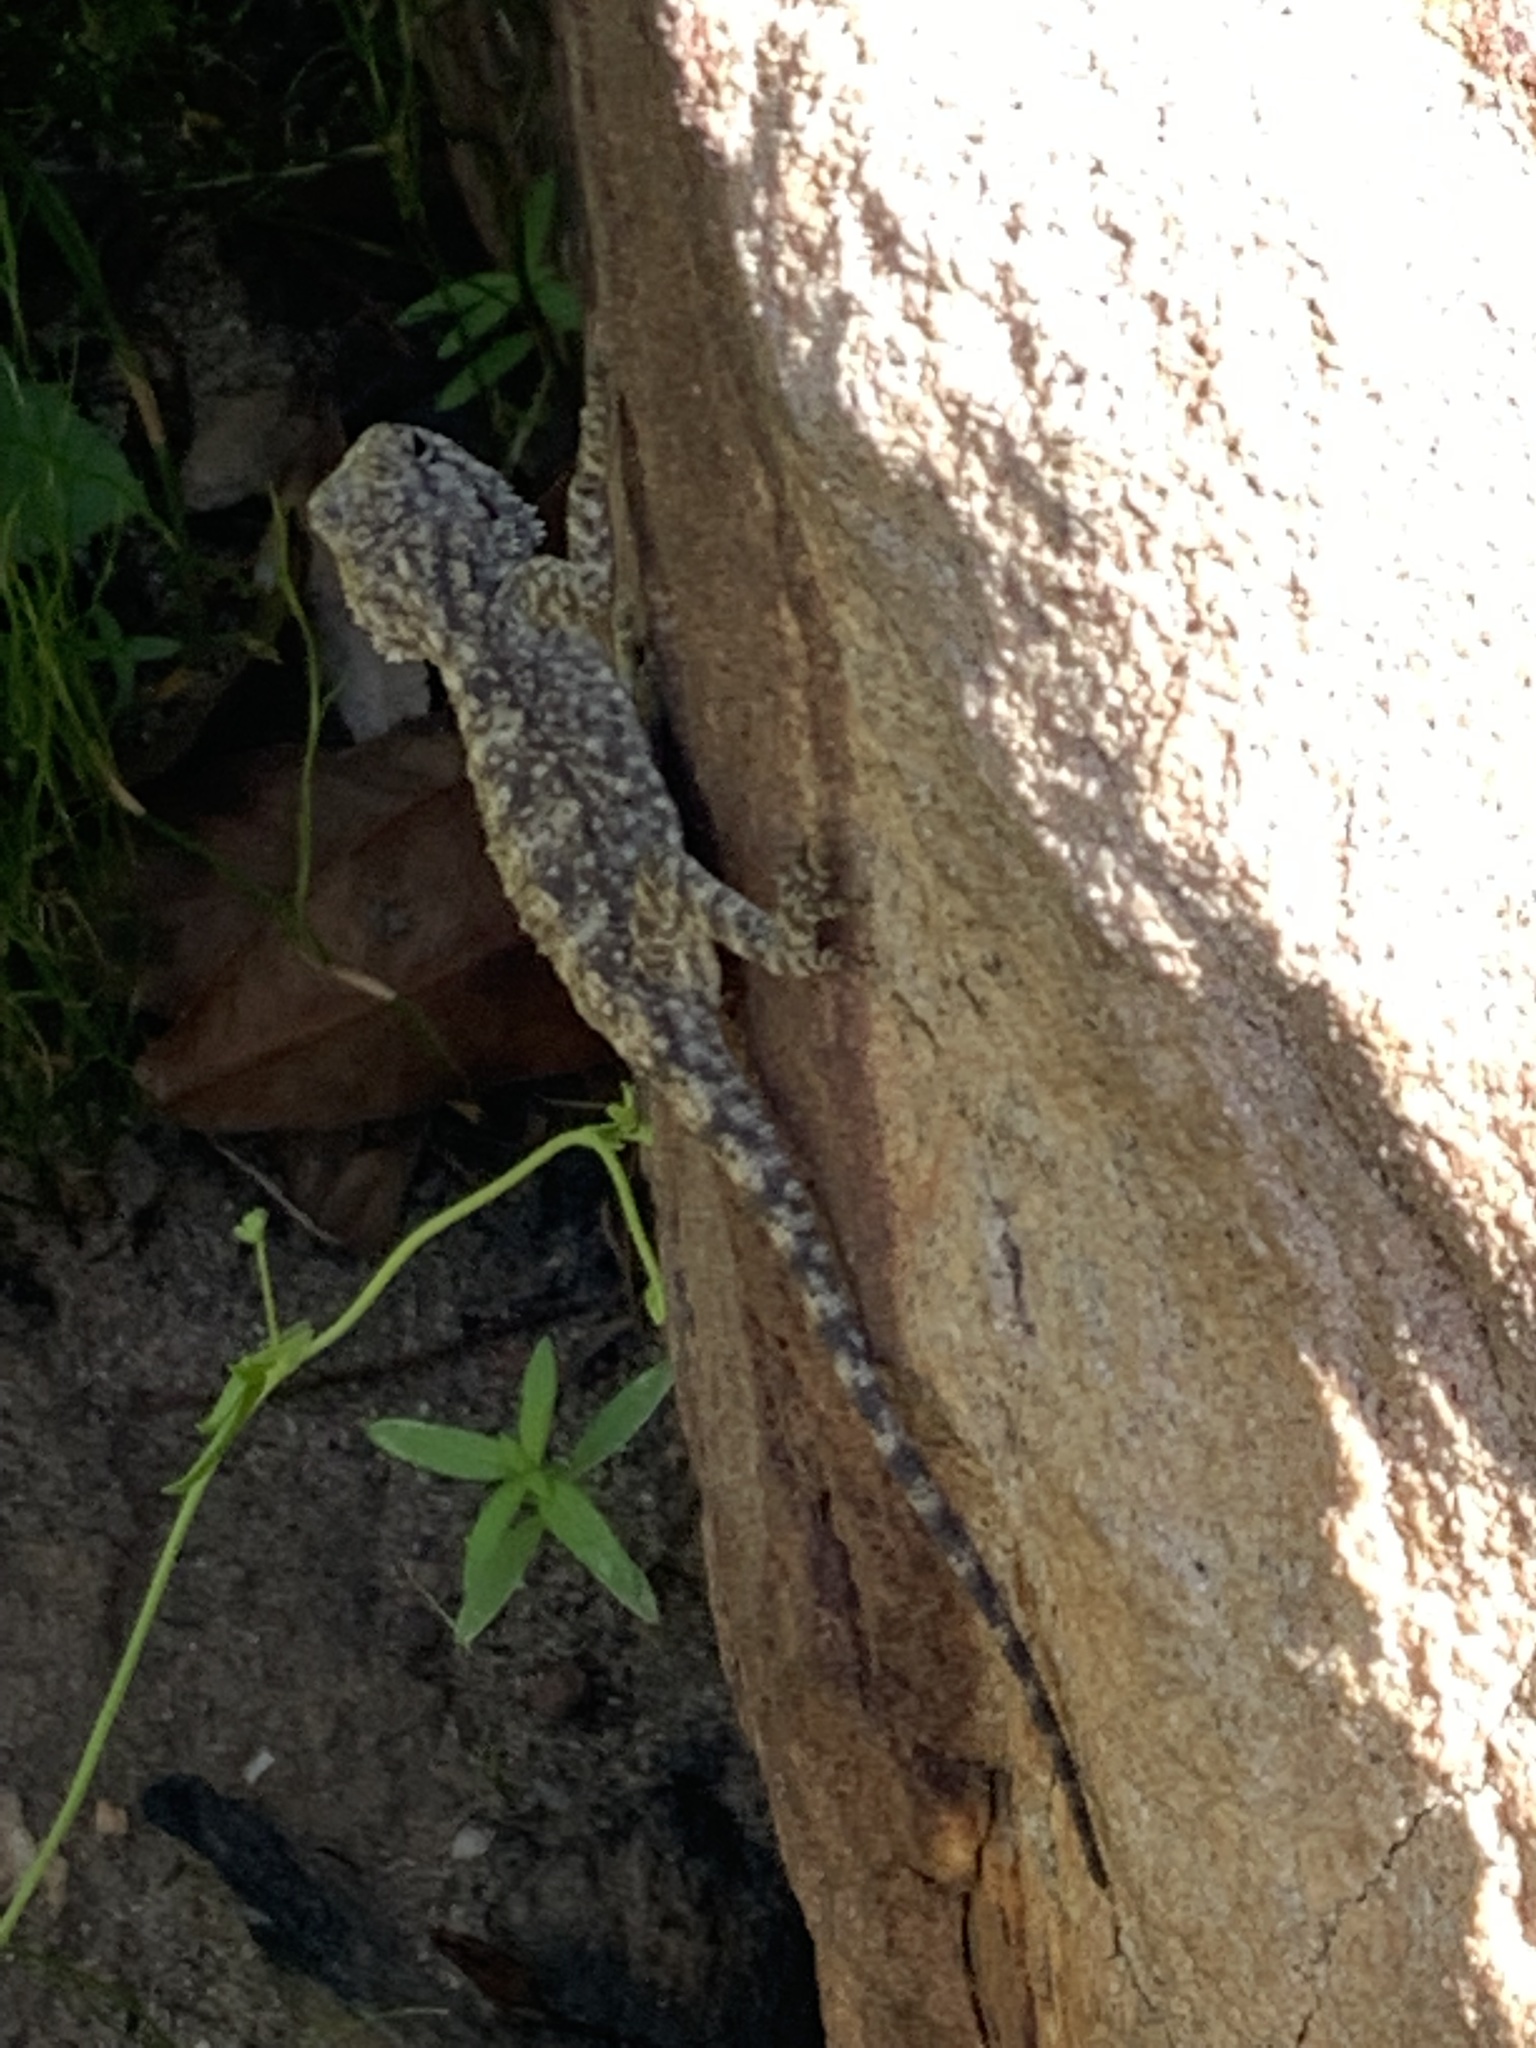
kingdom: Animalia
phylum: Chordata
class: Squamata
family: Agamidae
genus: Agama
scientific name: Agama atra
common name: Southern african rock agama
